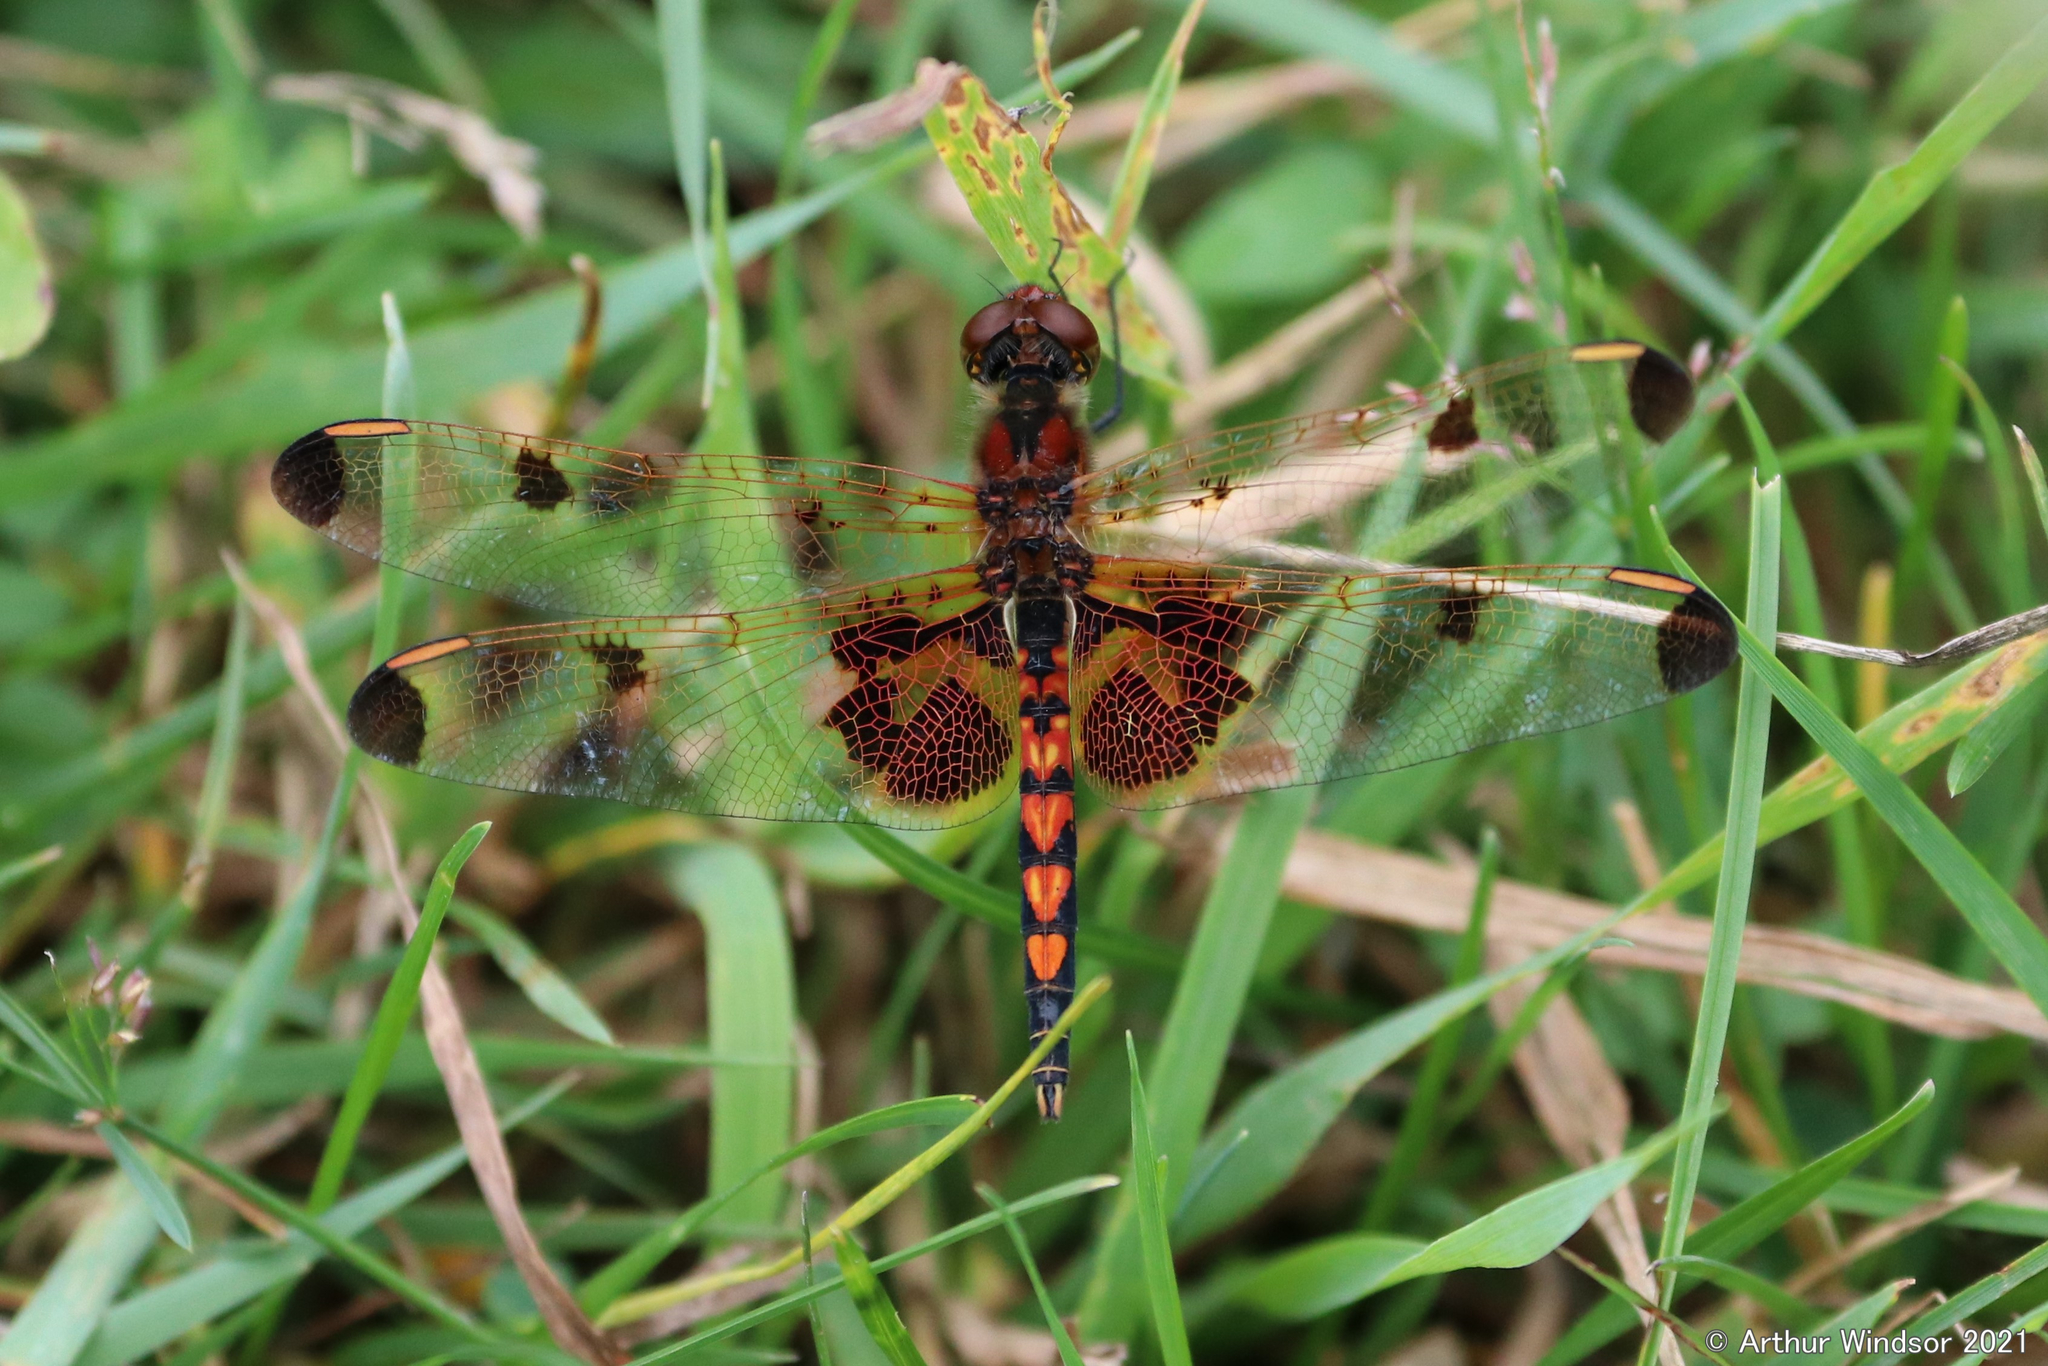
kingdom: Animalia
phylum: Arthropoda
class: Insecta
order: Odonata
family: Libellulidae
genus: Celithemis
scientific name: Celithemis elisa
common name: Calico pennant
